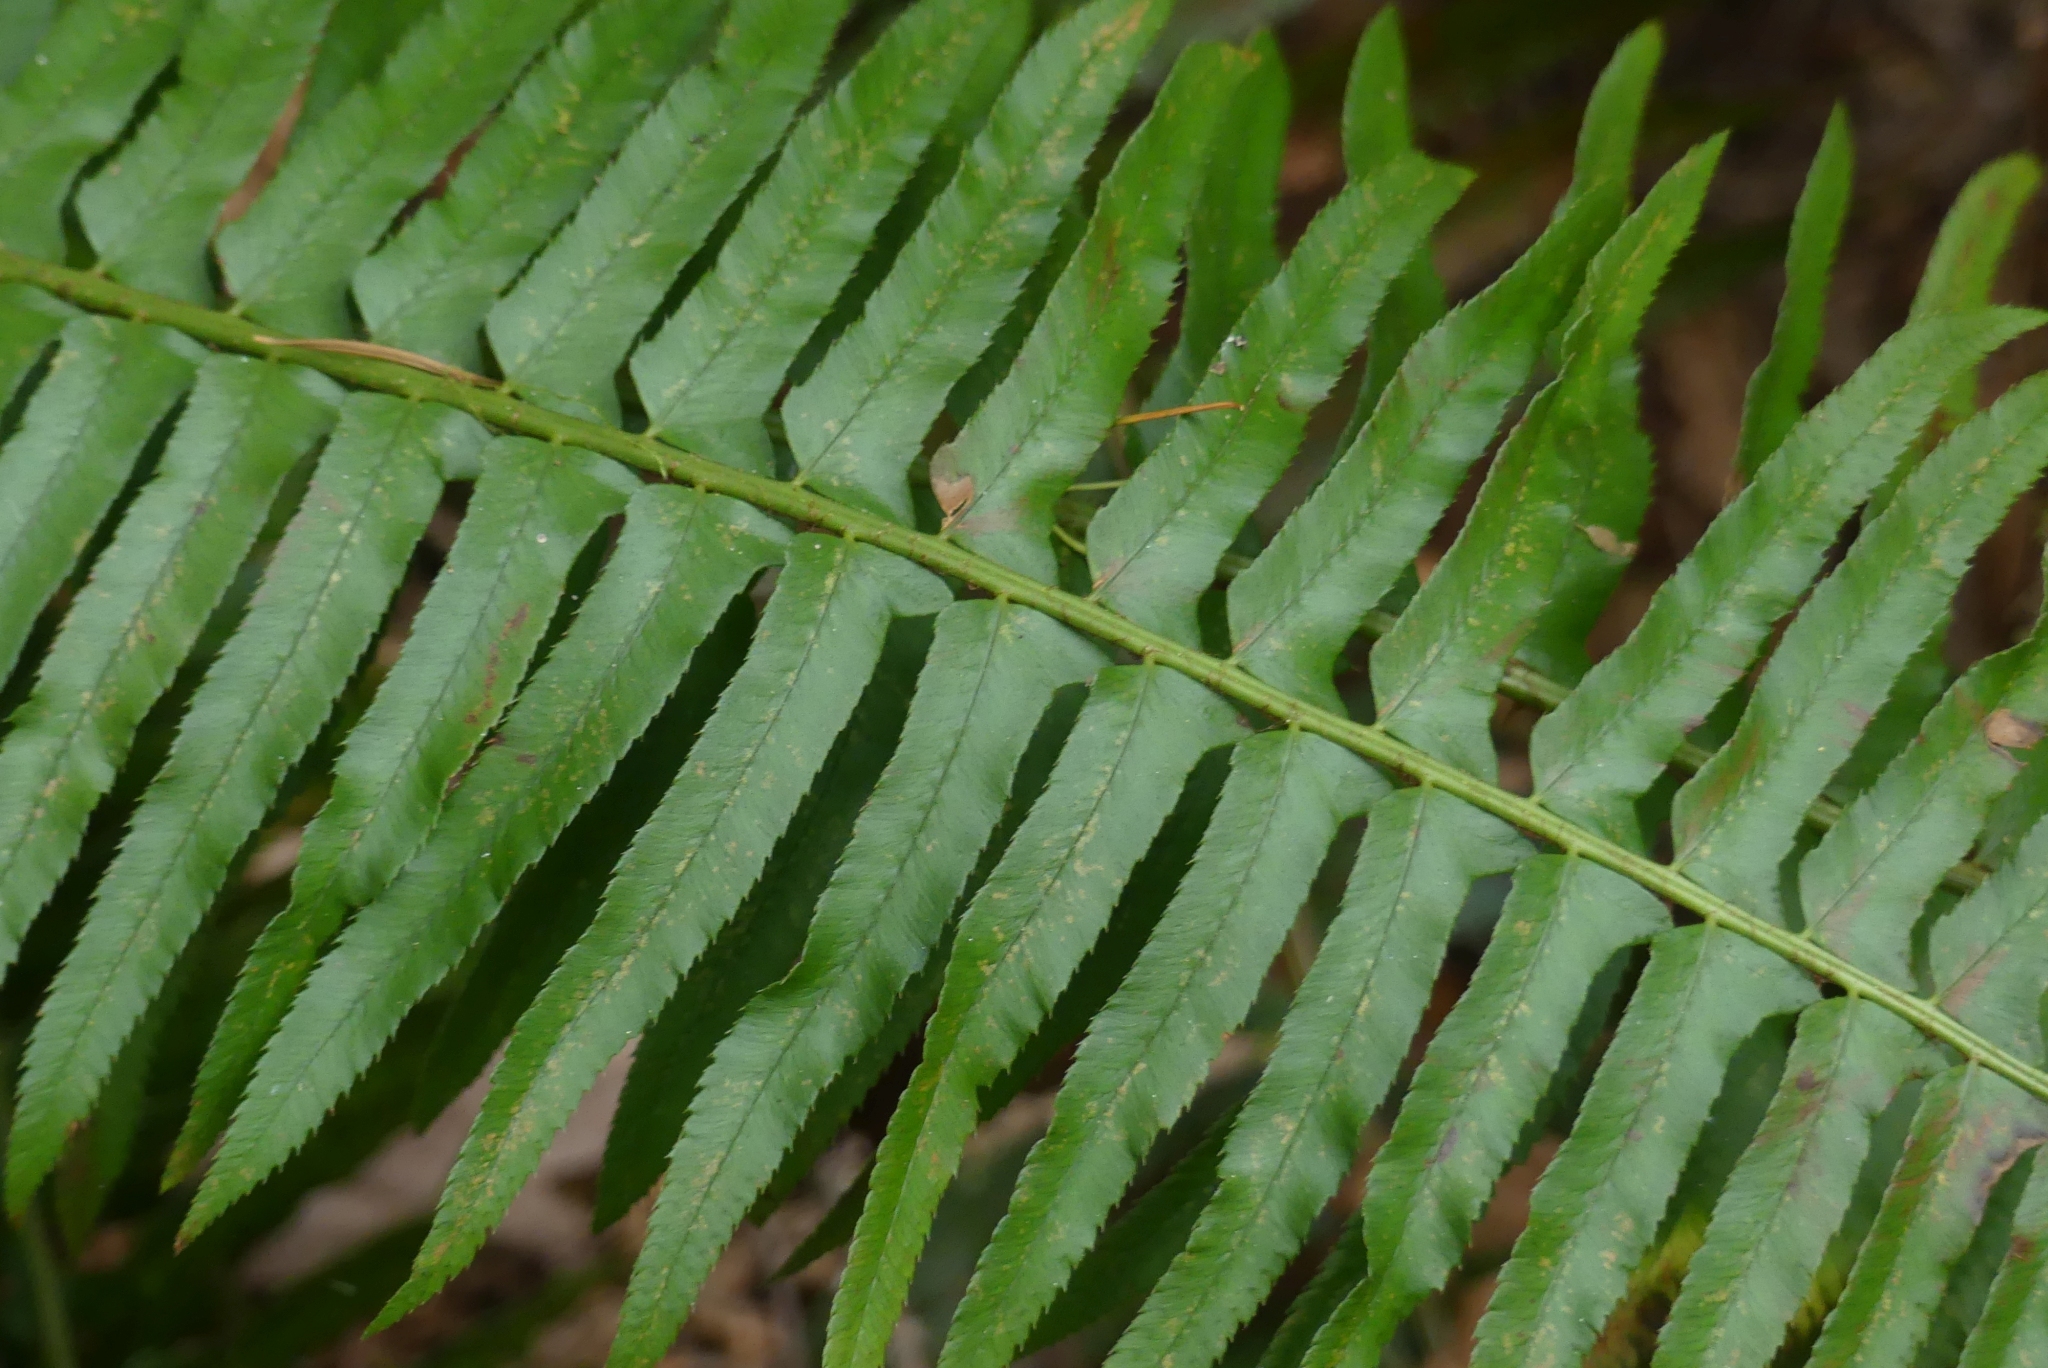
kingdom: Plantae
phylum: Tracheophyta
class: Polypodiopsida
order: Polypodiales
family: Dryopteridaceae
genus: Polystichum
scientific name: Polystichum munitum
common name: Western sword-fern
